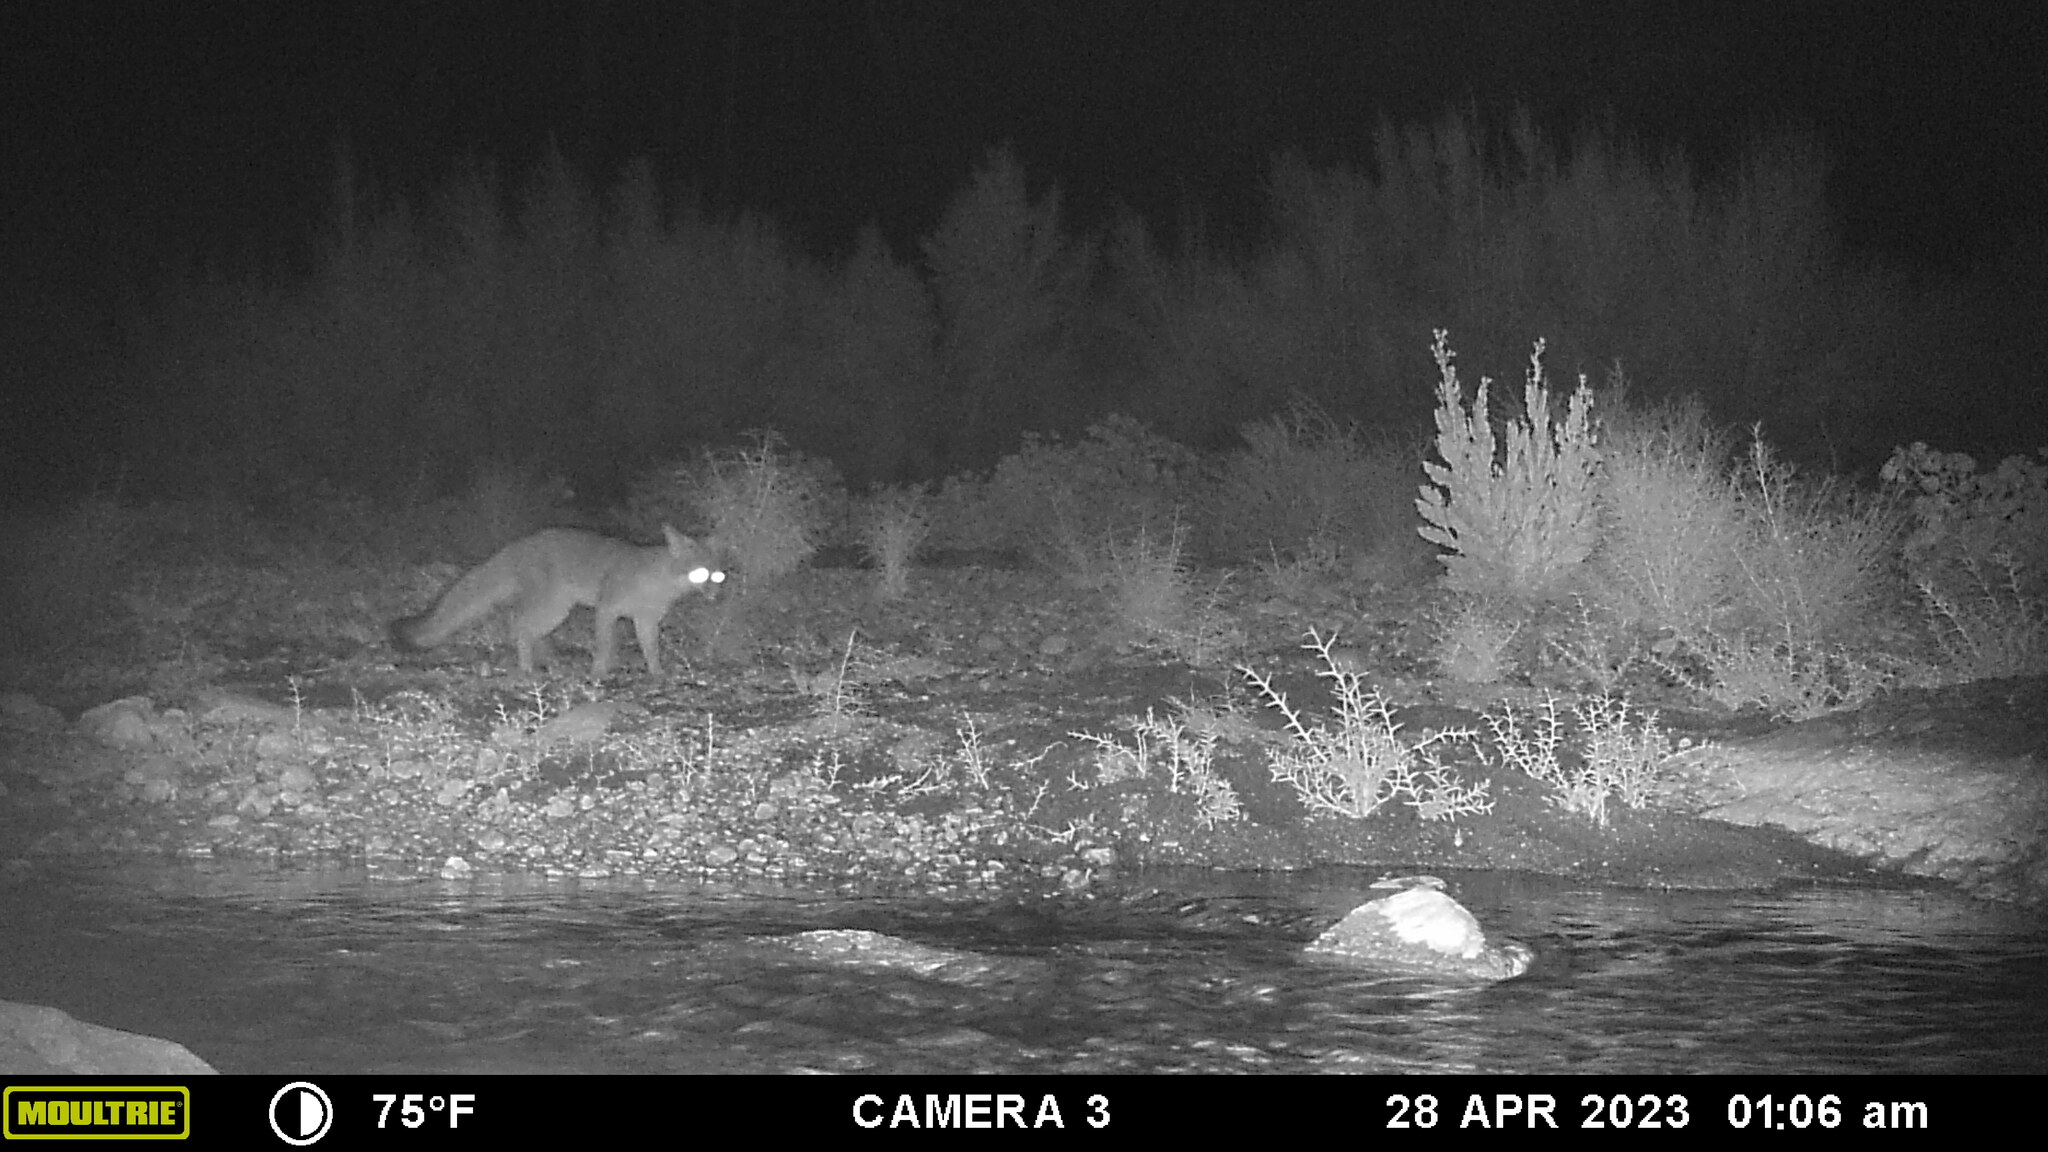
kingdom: Animalia
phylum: Chordata
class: Mammalia
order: Carnivora
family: Canidae
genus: Urocyon
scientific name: Urocyon cinereoargenteus
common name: Gray fox
